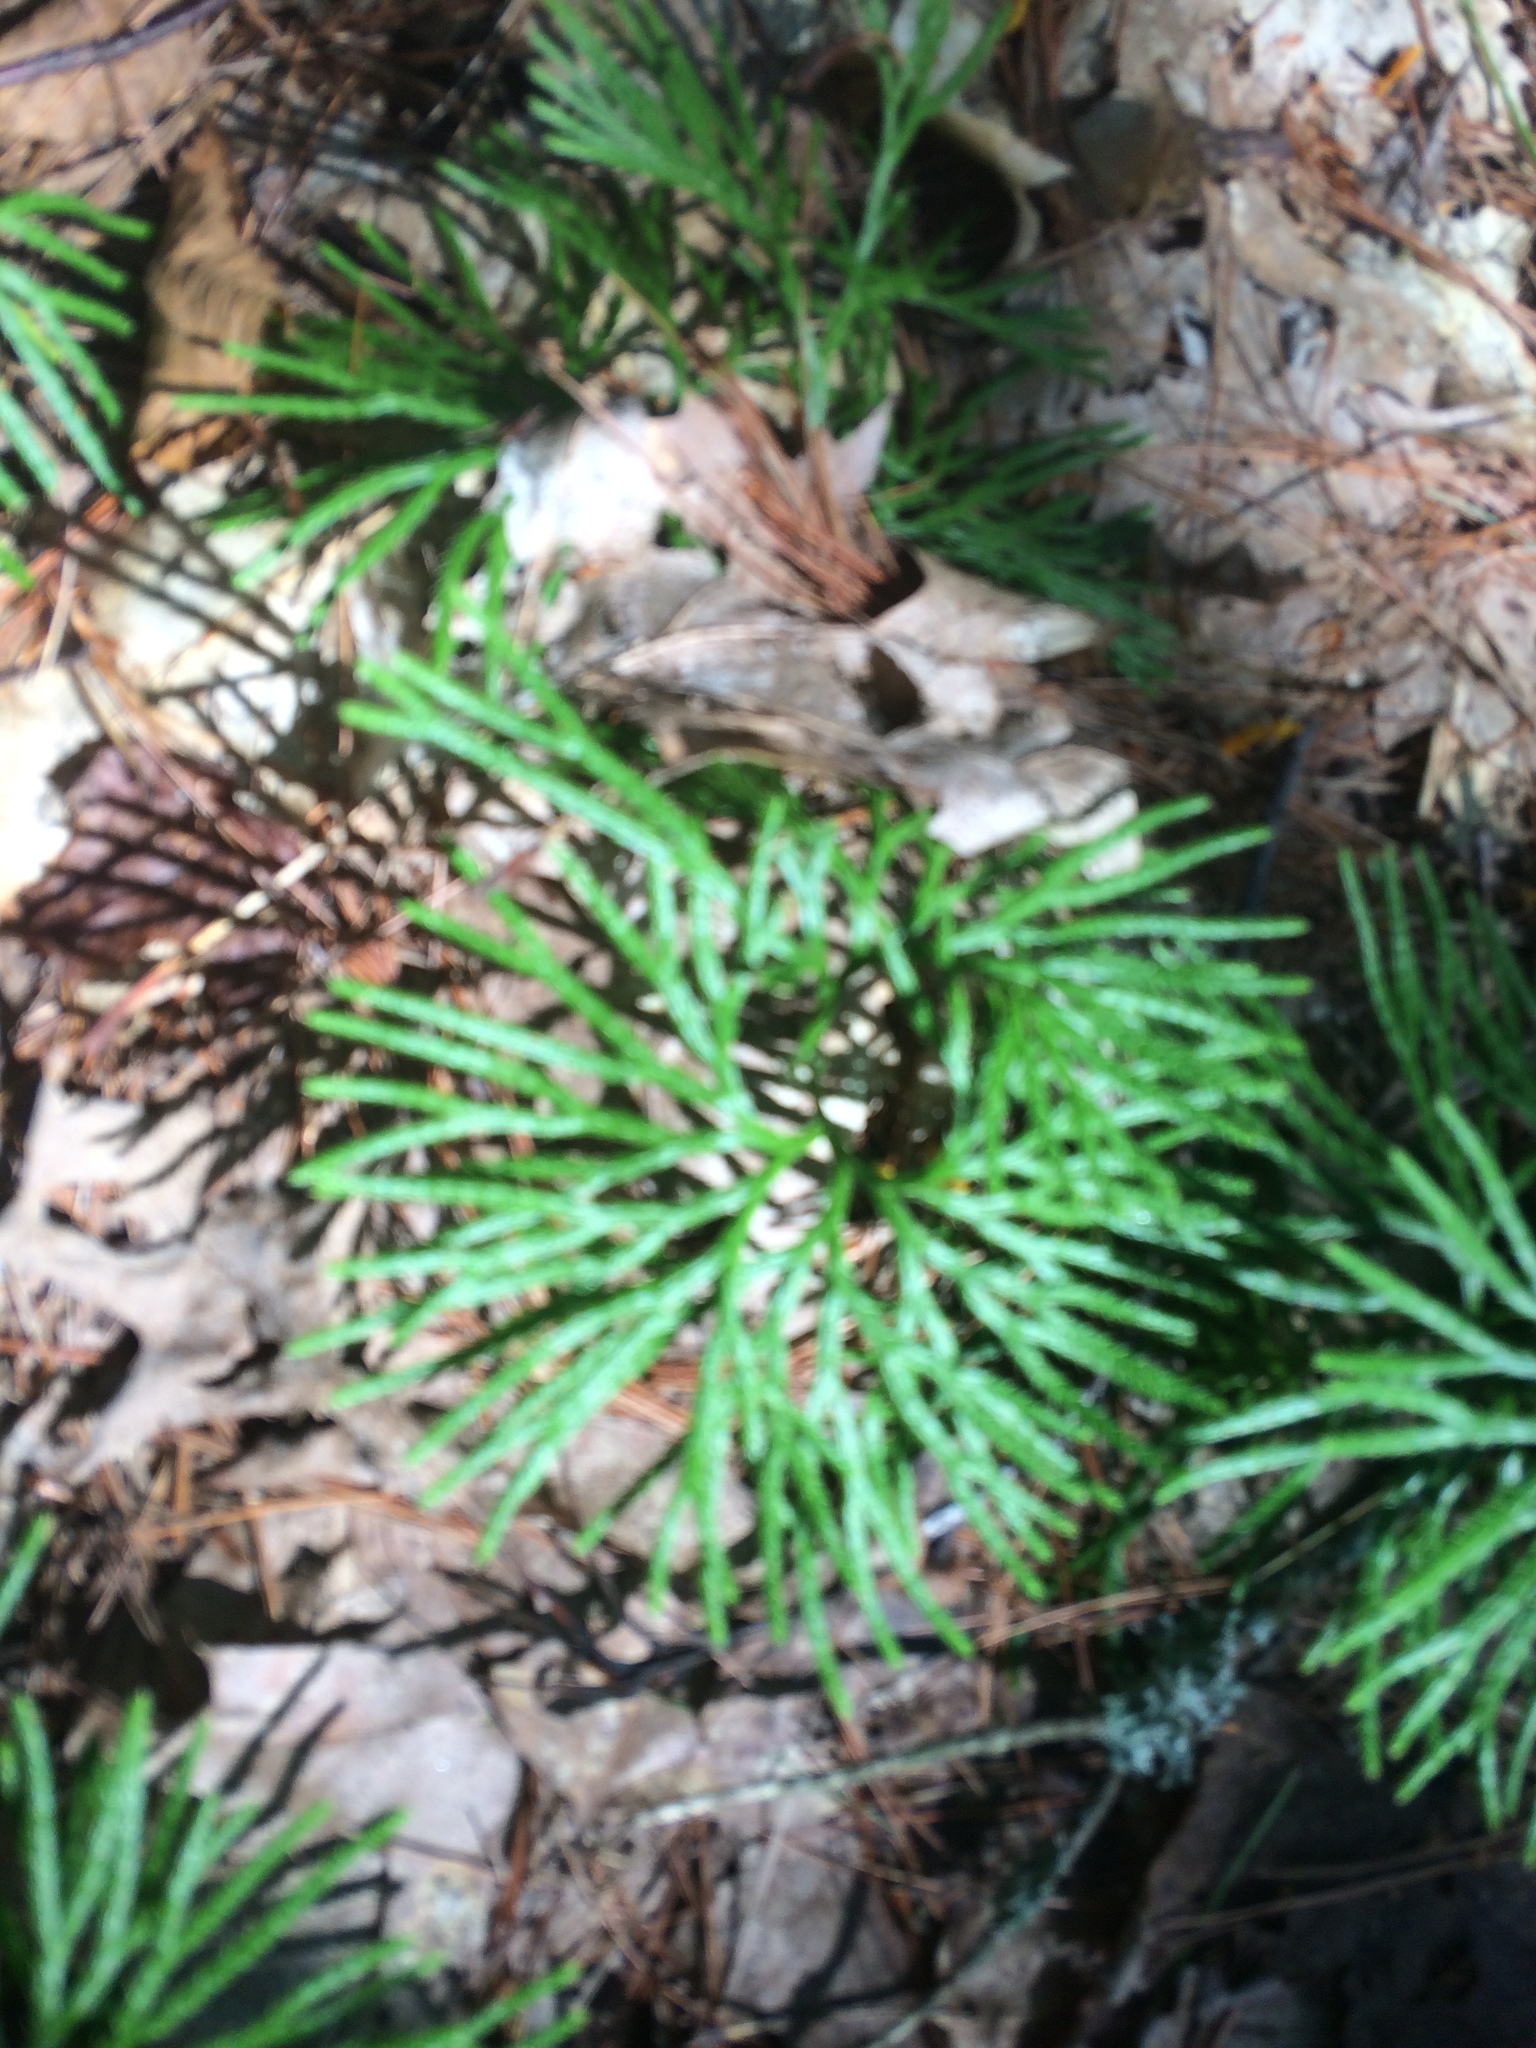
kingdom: Plantae
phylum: Tracheophyta
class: Lycopodiopsida
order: Lycopodiales
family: Lycopodiaceae
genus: Diphasiastrum
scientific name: Diphasiastrum digitatum
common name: Southern running-pine
